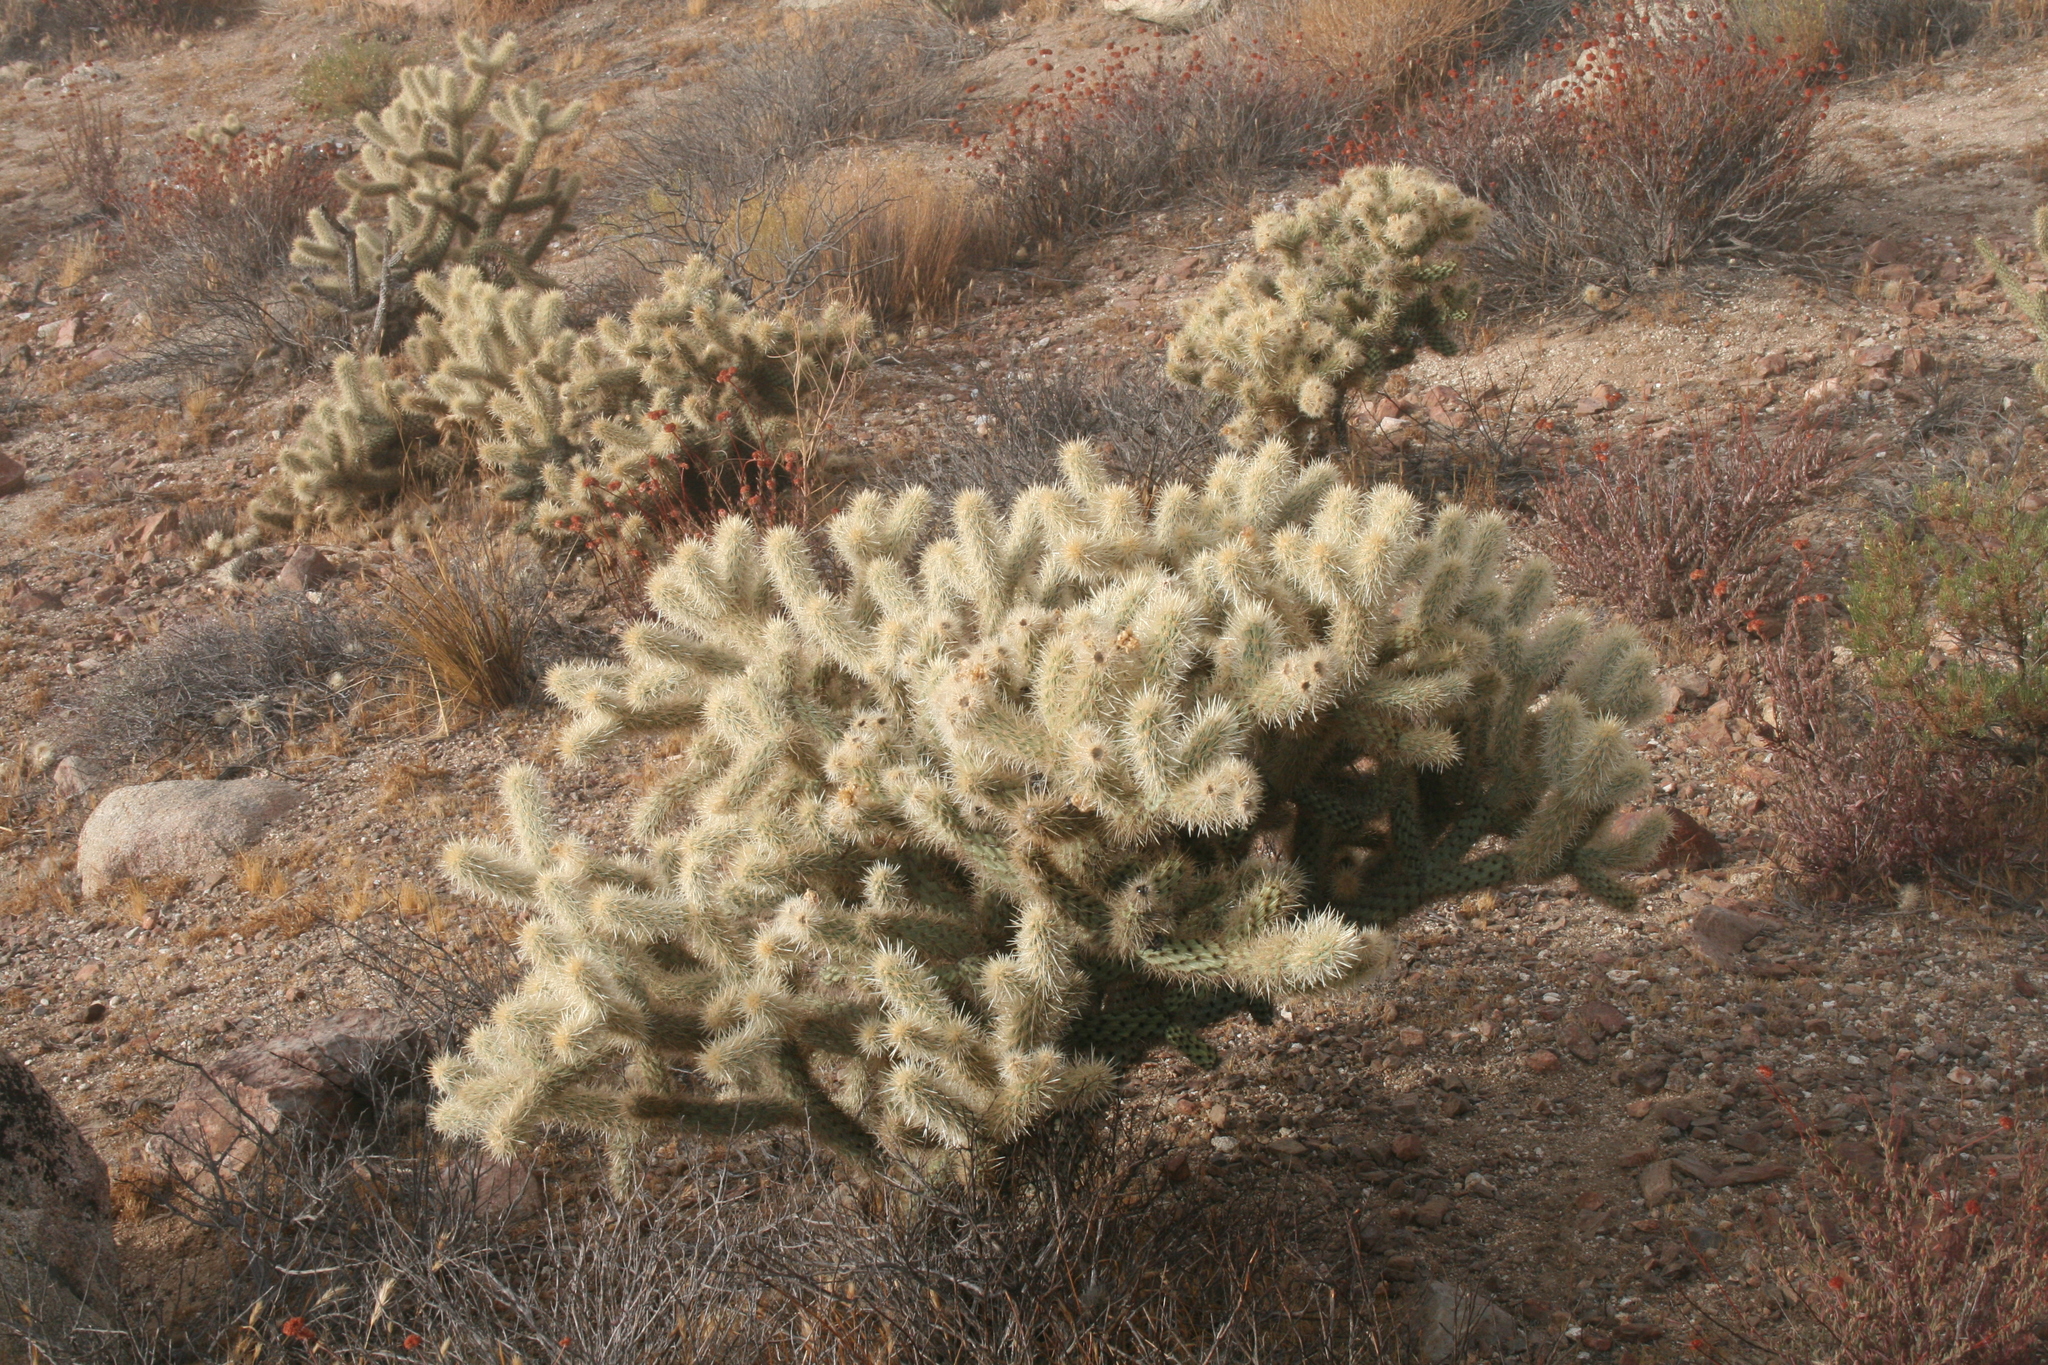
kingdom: Plantae
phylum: Tracheophyta
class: Magnoliopsida
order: Caryophyllales
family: Cactaceae
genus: Cylindropuntia
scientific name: Cylindropuntia wolfii
